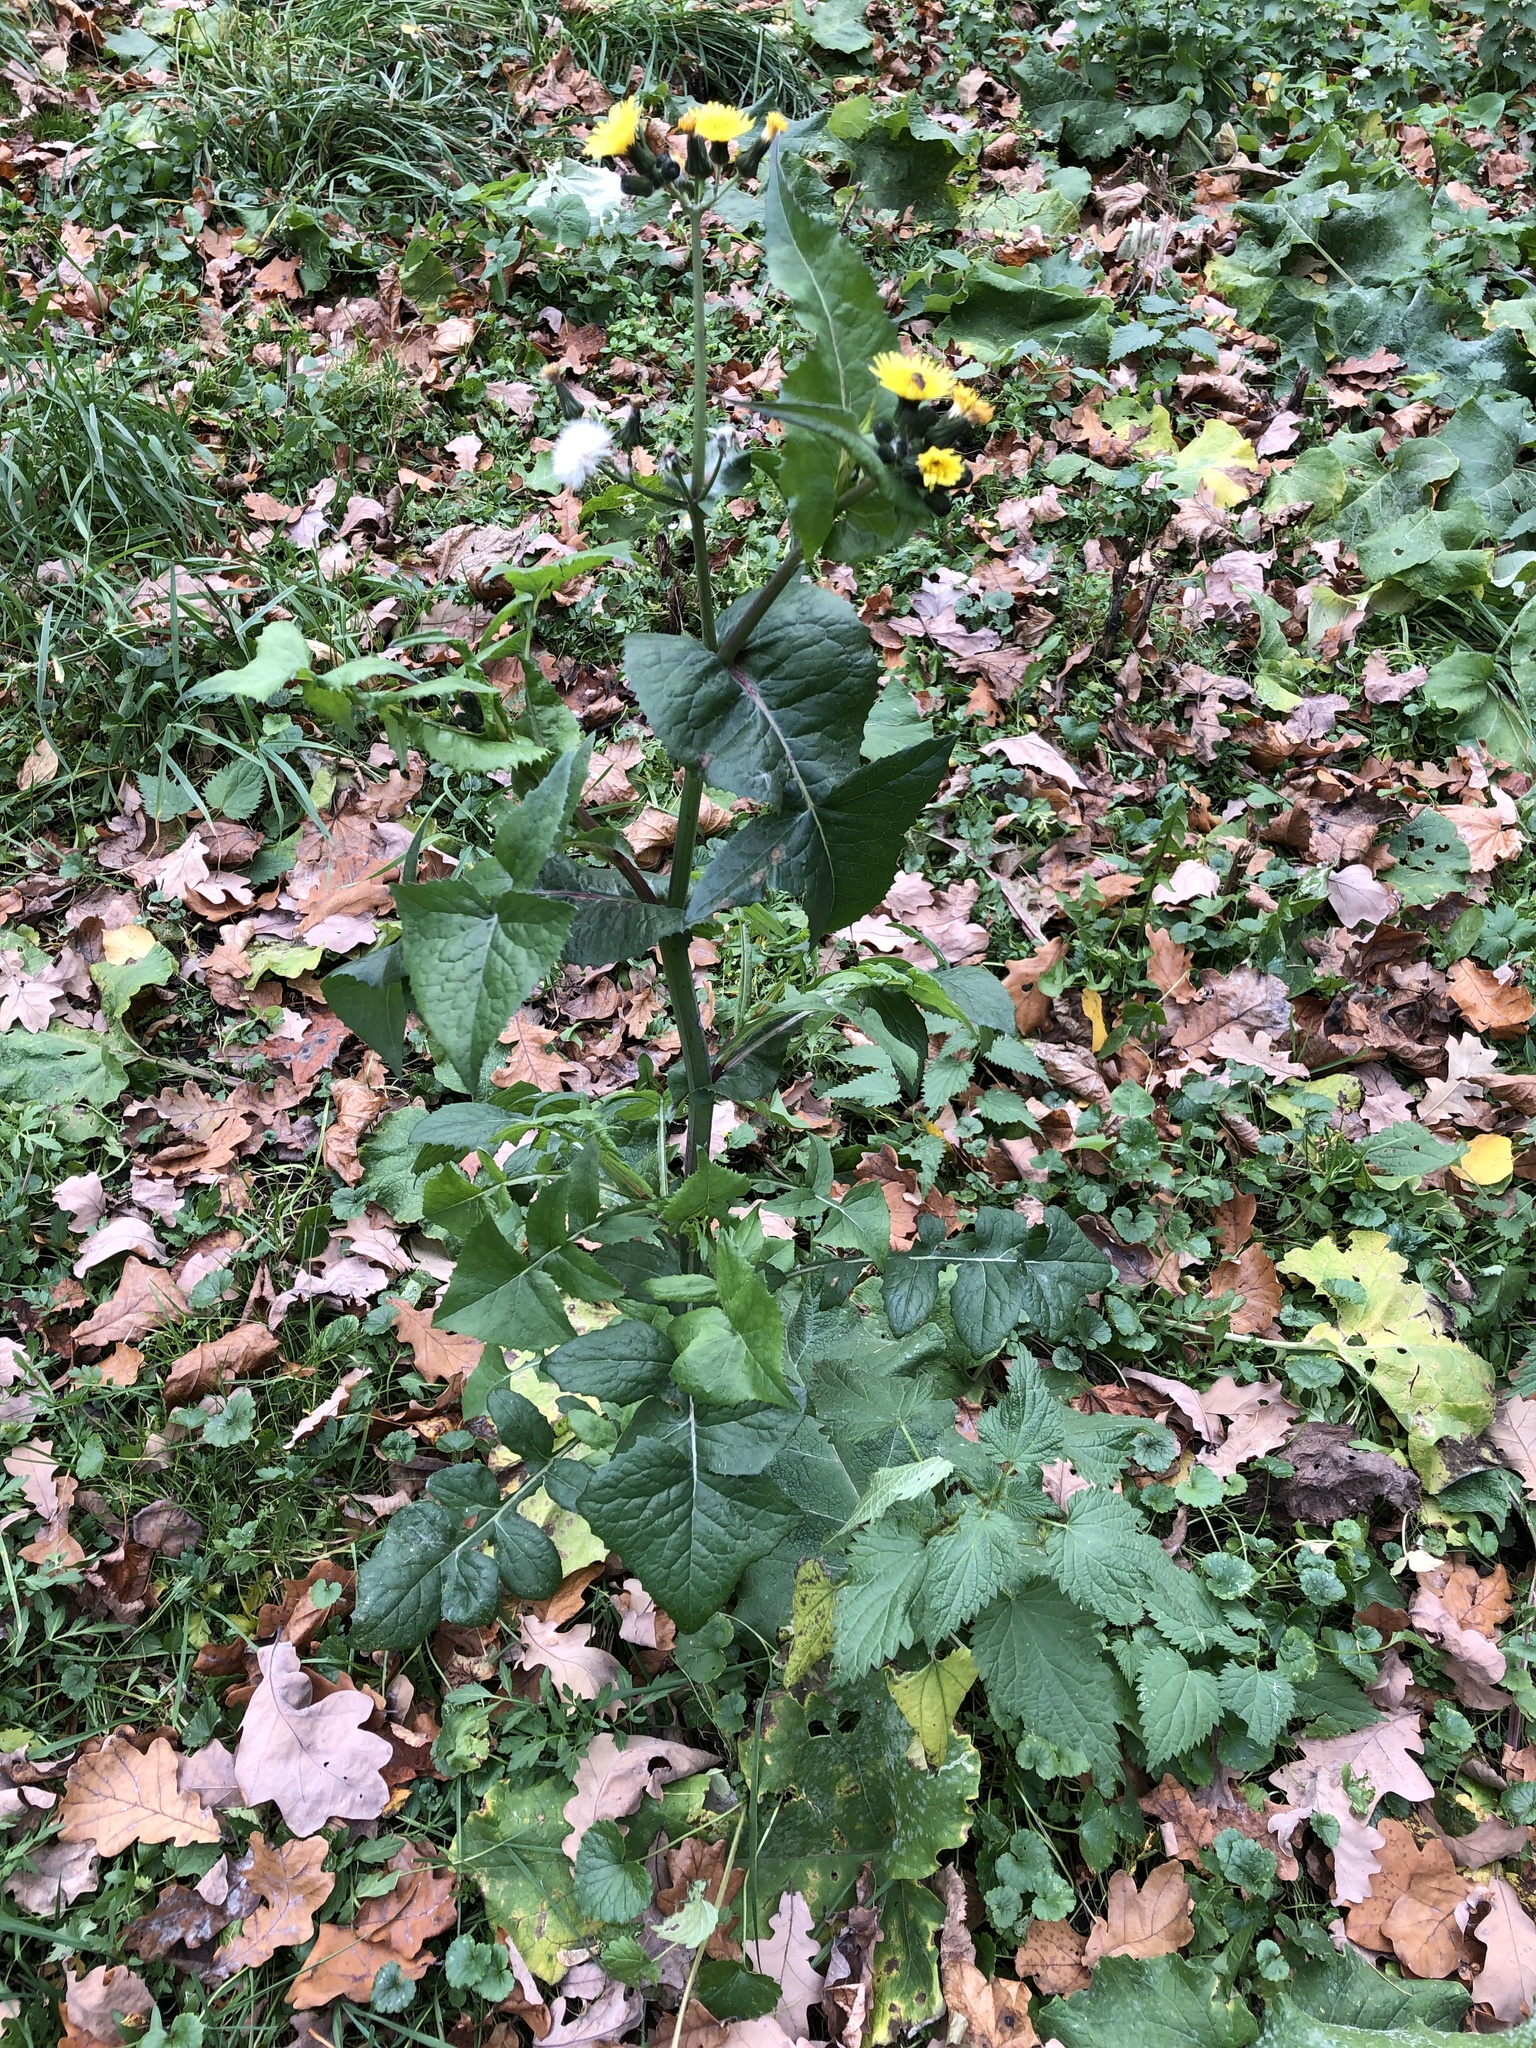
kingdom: Plantae
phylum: Tracheophyta
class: Magnoliopsida
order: Asterales
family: Asteraceae
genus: Sonchus
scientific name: Sonchus oleraceus
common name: Common sowthistle
